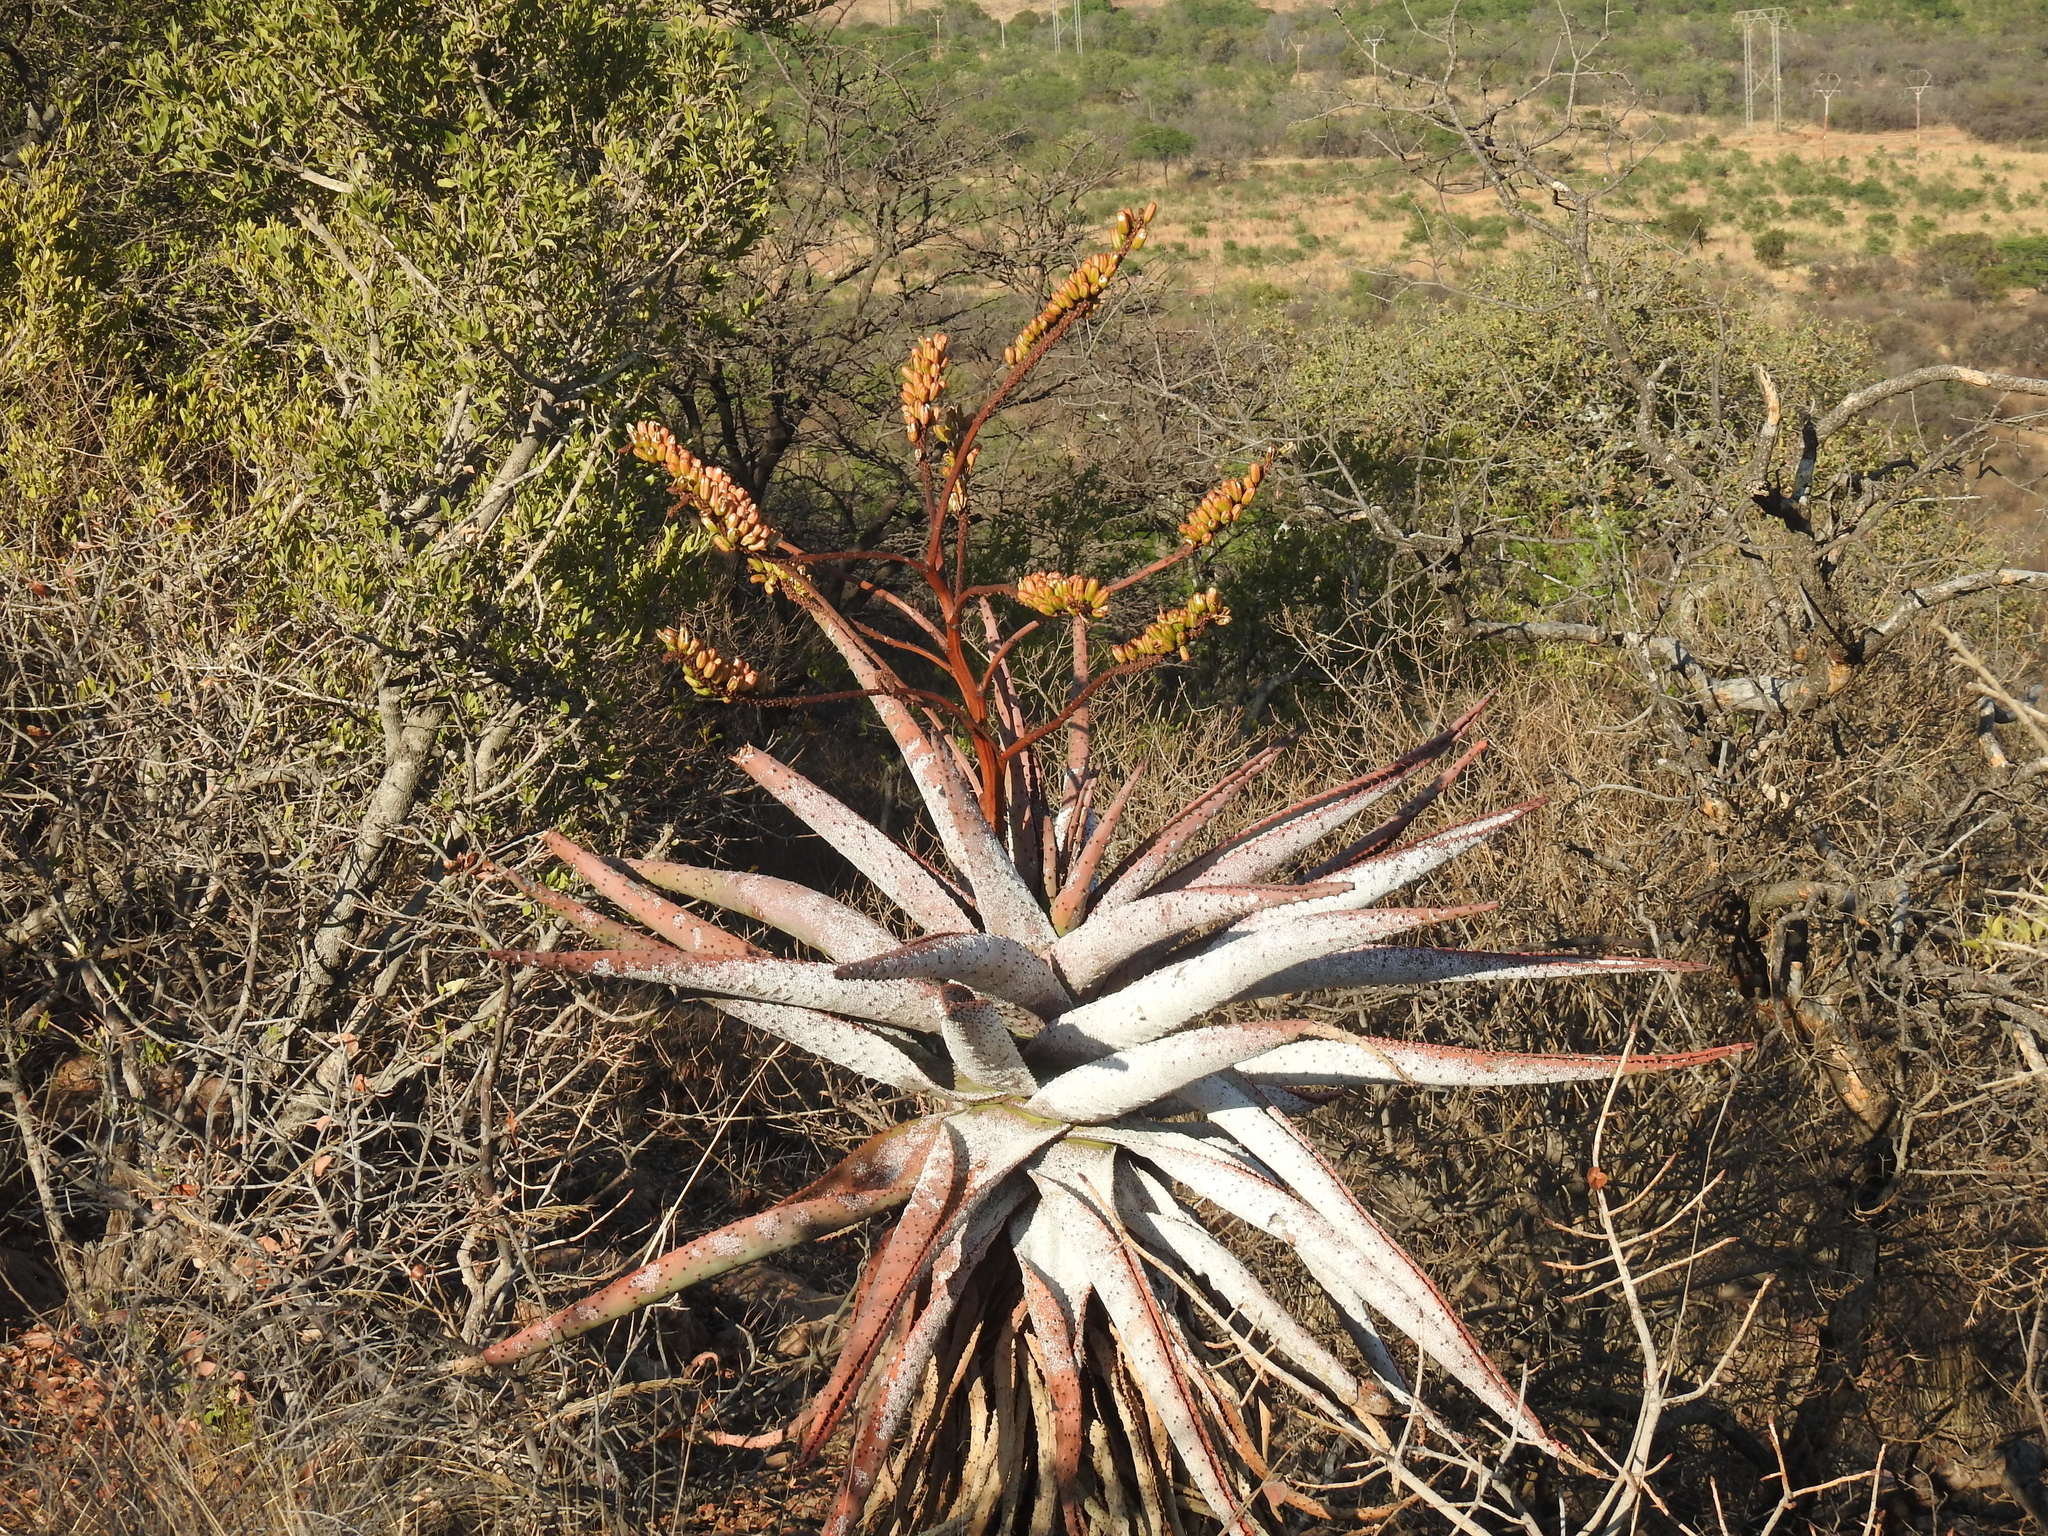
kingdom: Plantae
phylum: Tracheophyta
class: Liliopsida
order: Asparagales
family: Asphodelaceae
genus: Aloe
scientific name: Aloe marlothii
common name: Flat-flowered aloe
